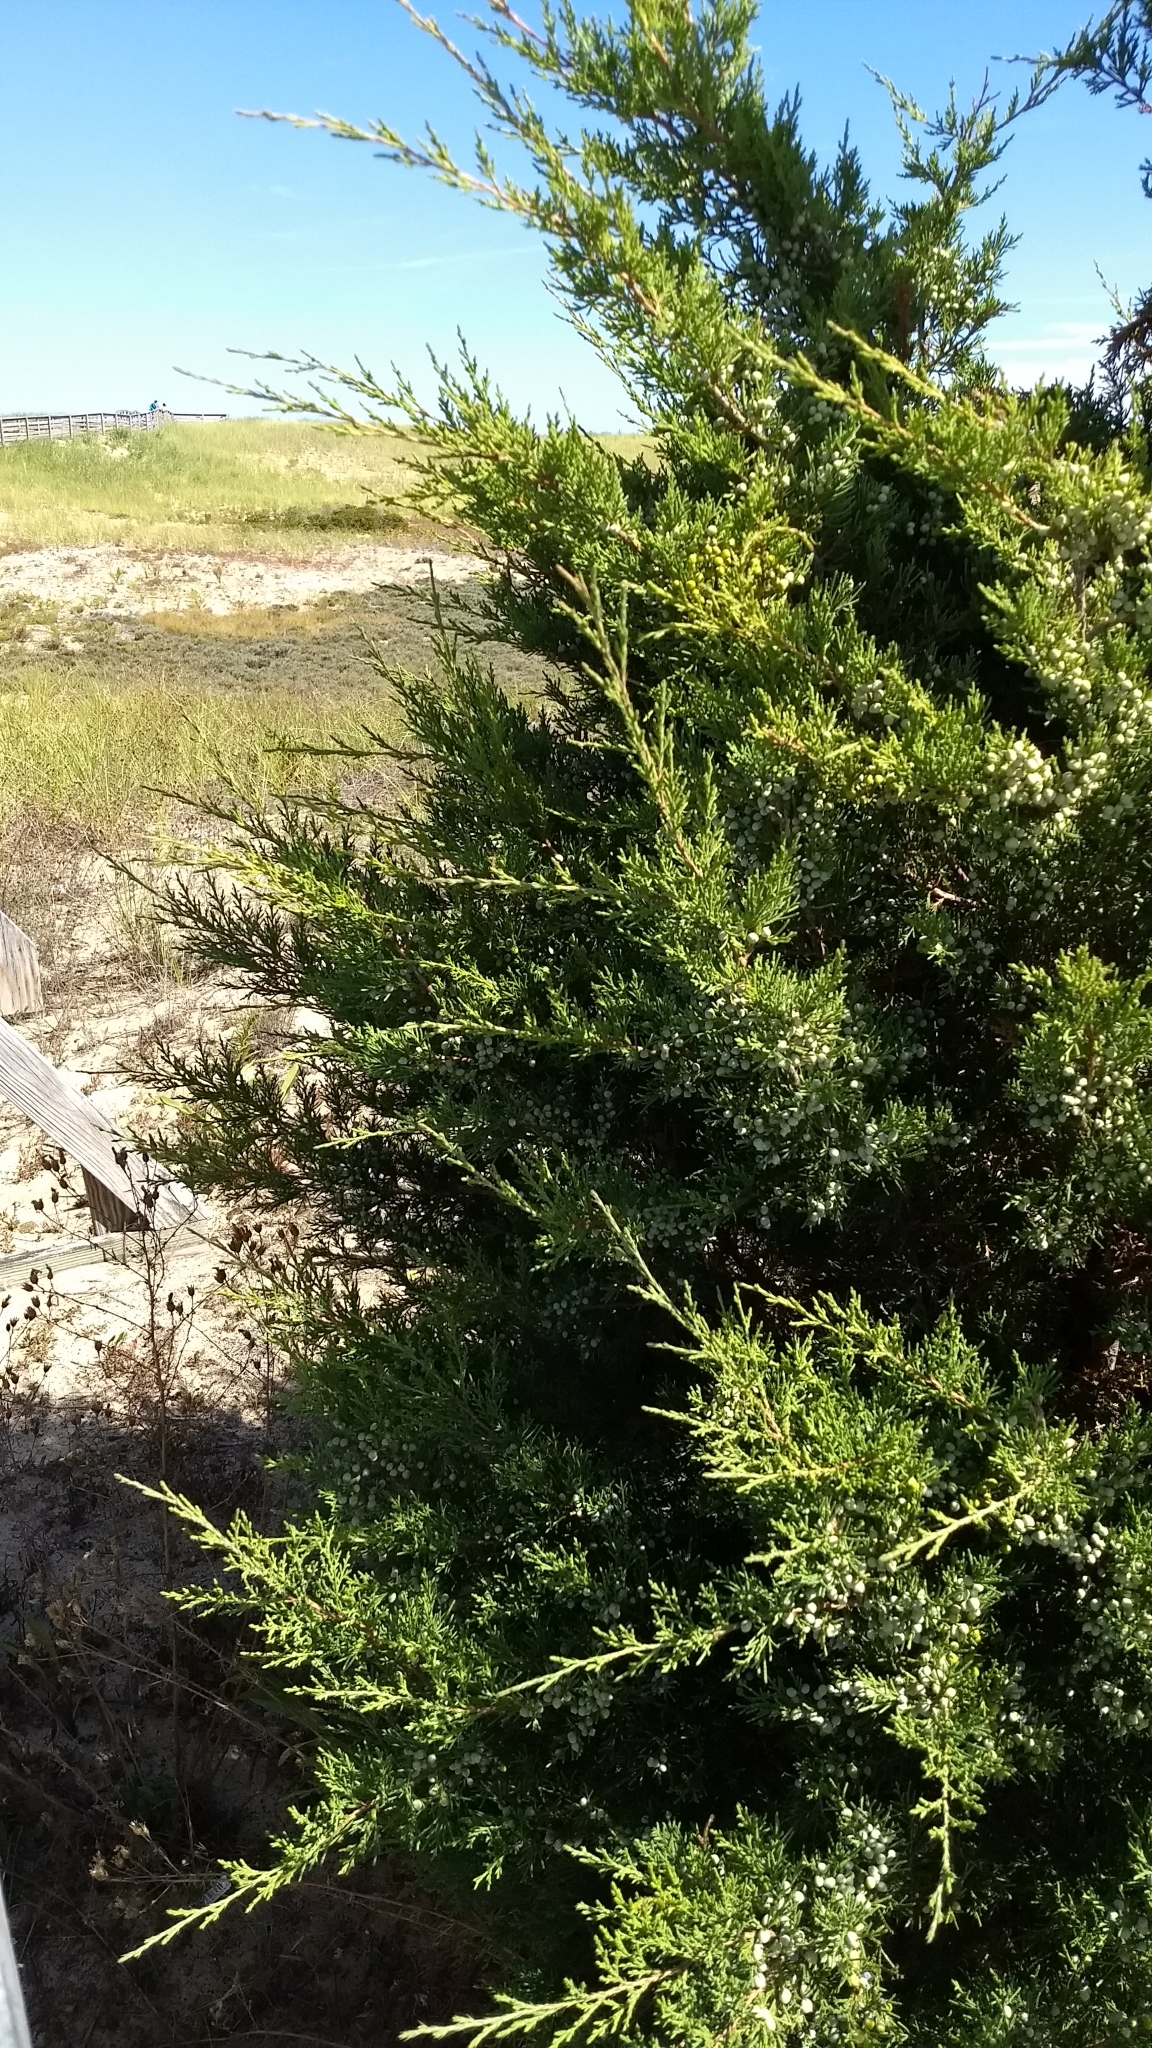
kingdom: Plantae
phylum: Tracheophyta
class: Pinopsida
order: Pinales
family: Cupressaceae
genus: Juniperus
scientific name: Juniperus virginiana
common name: Red juniper
